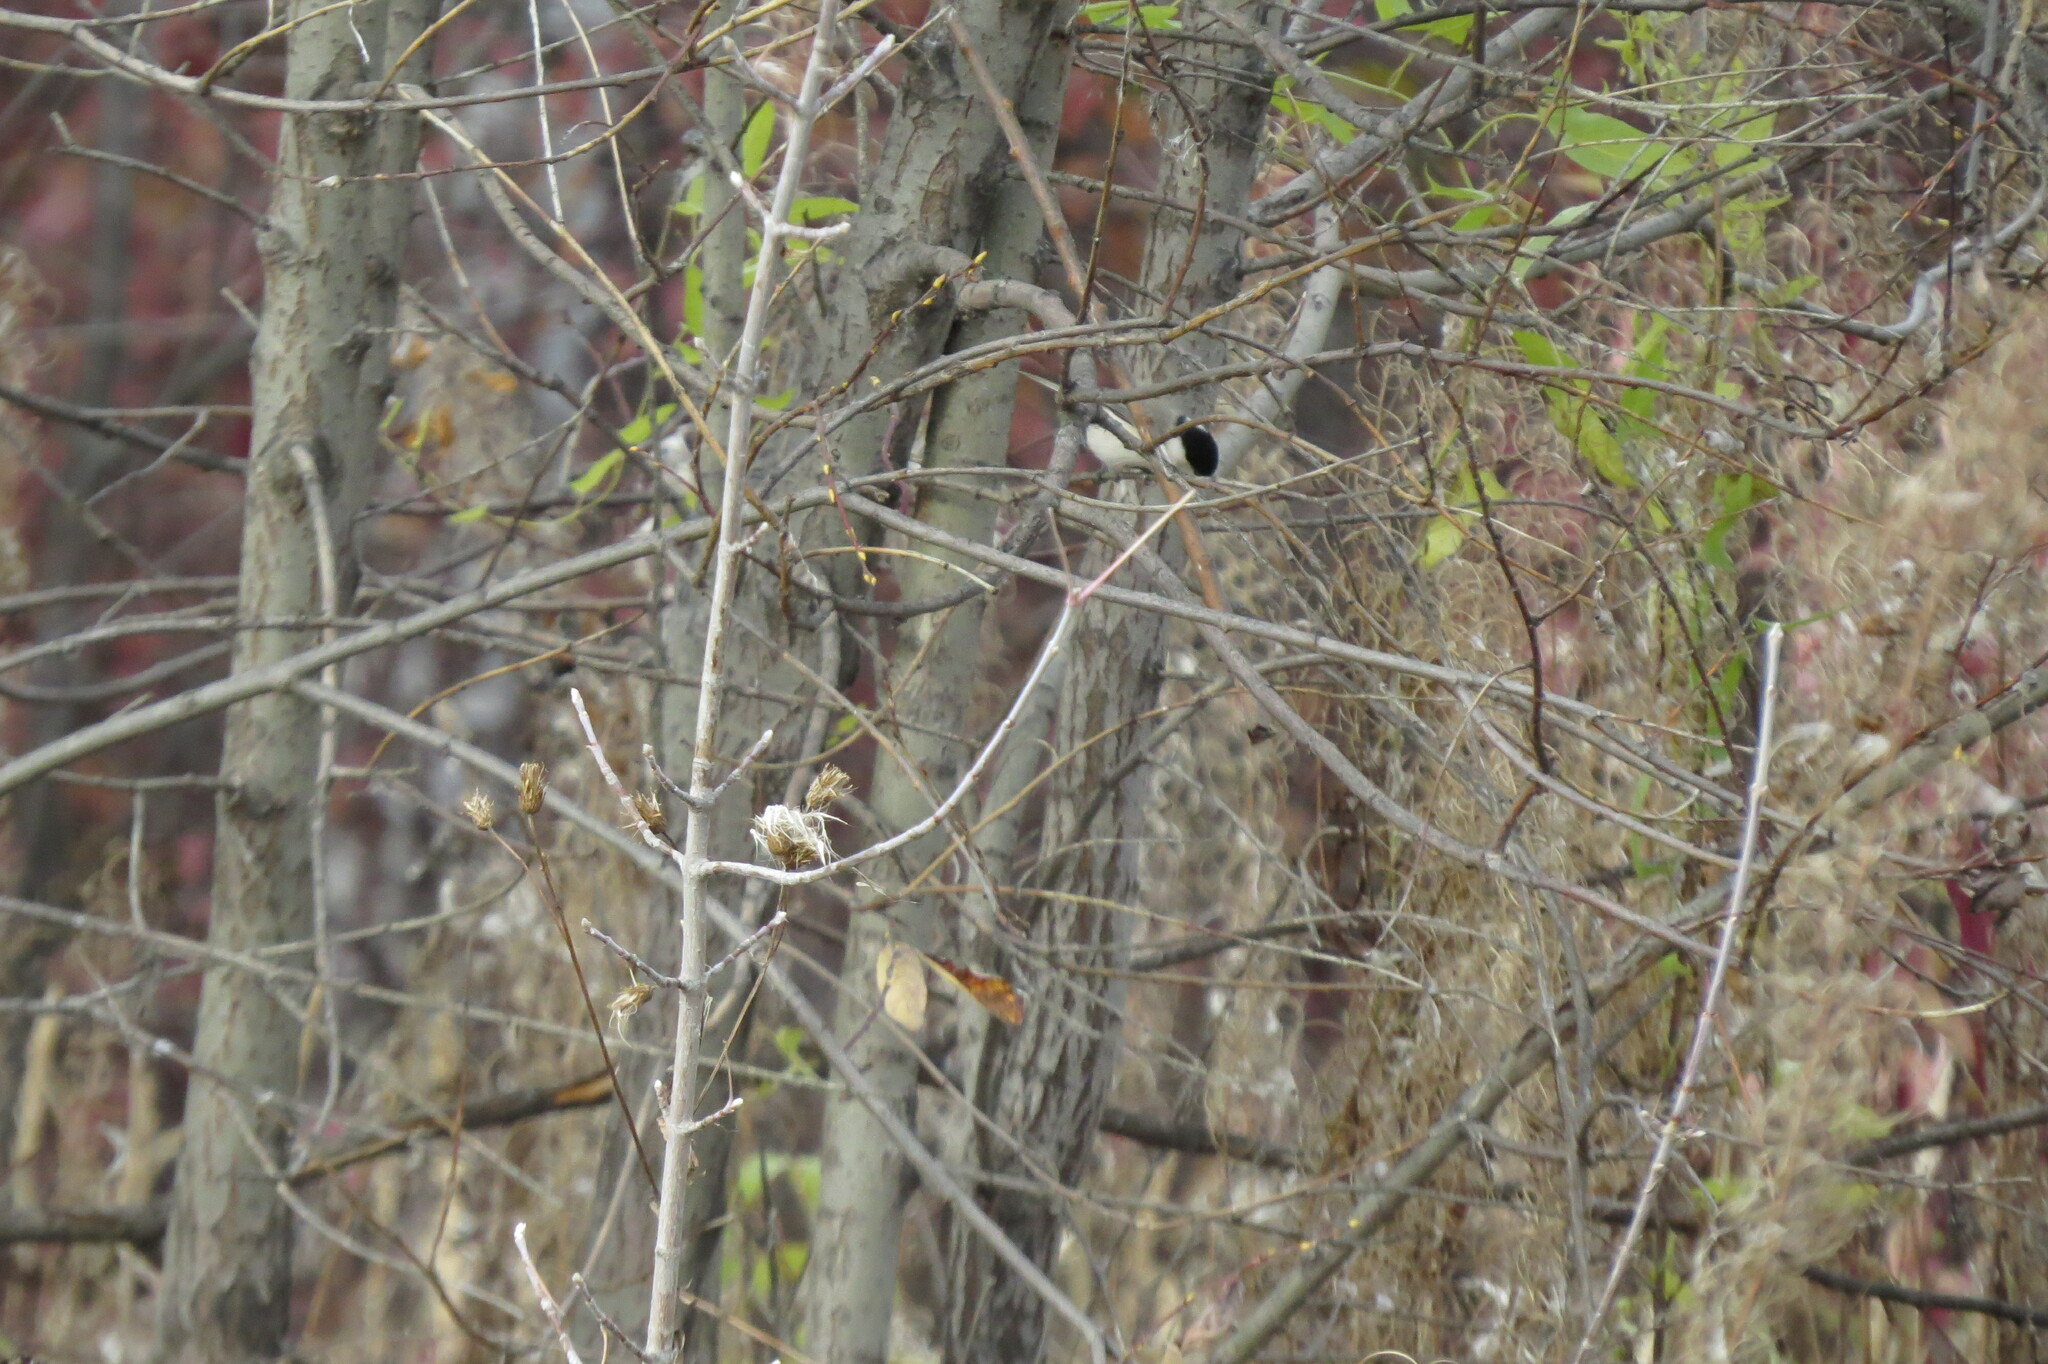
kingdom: Animalia
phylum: Chordata
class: Aves
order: Passeriformes
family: Paridae
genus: Poecile
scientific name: Poecile montanus
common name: Willow tit
